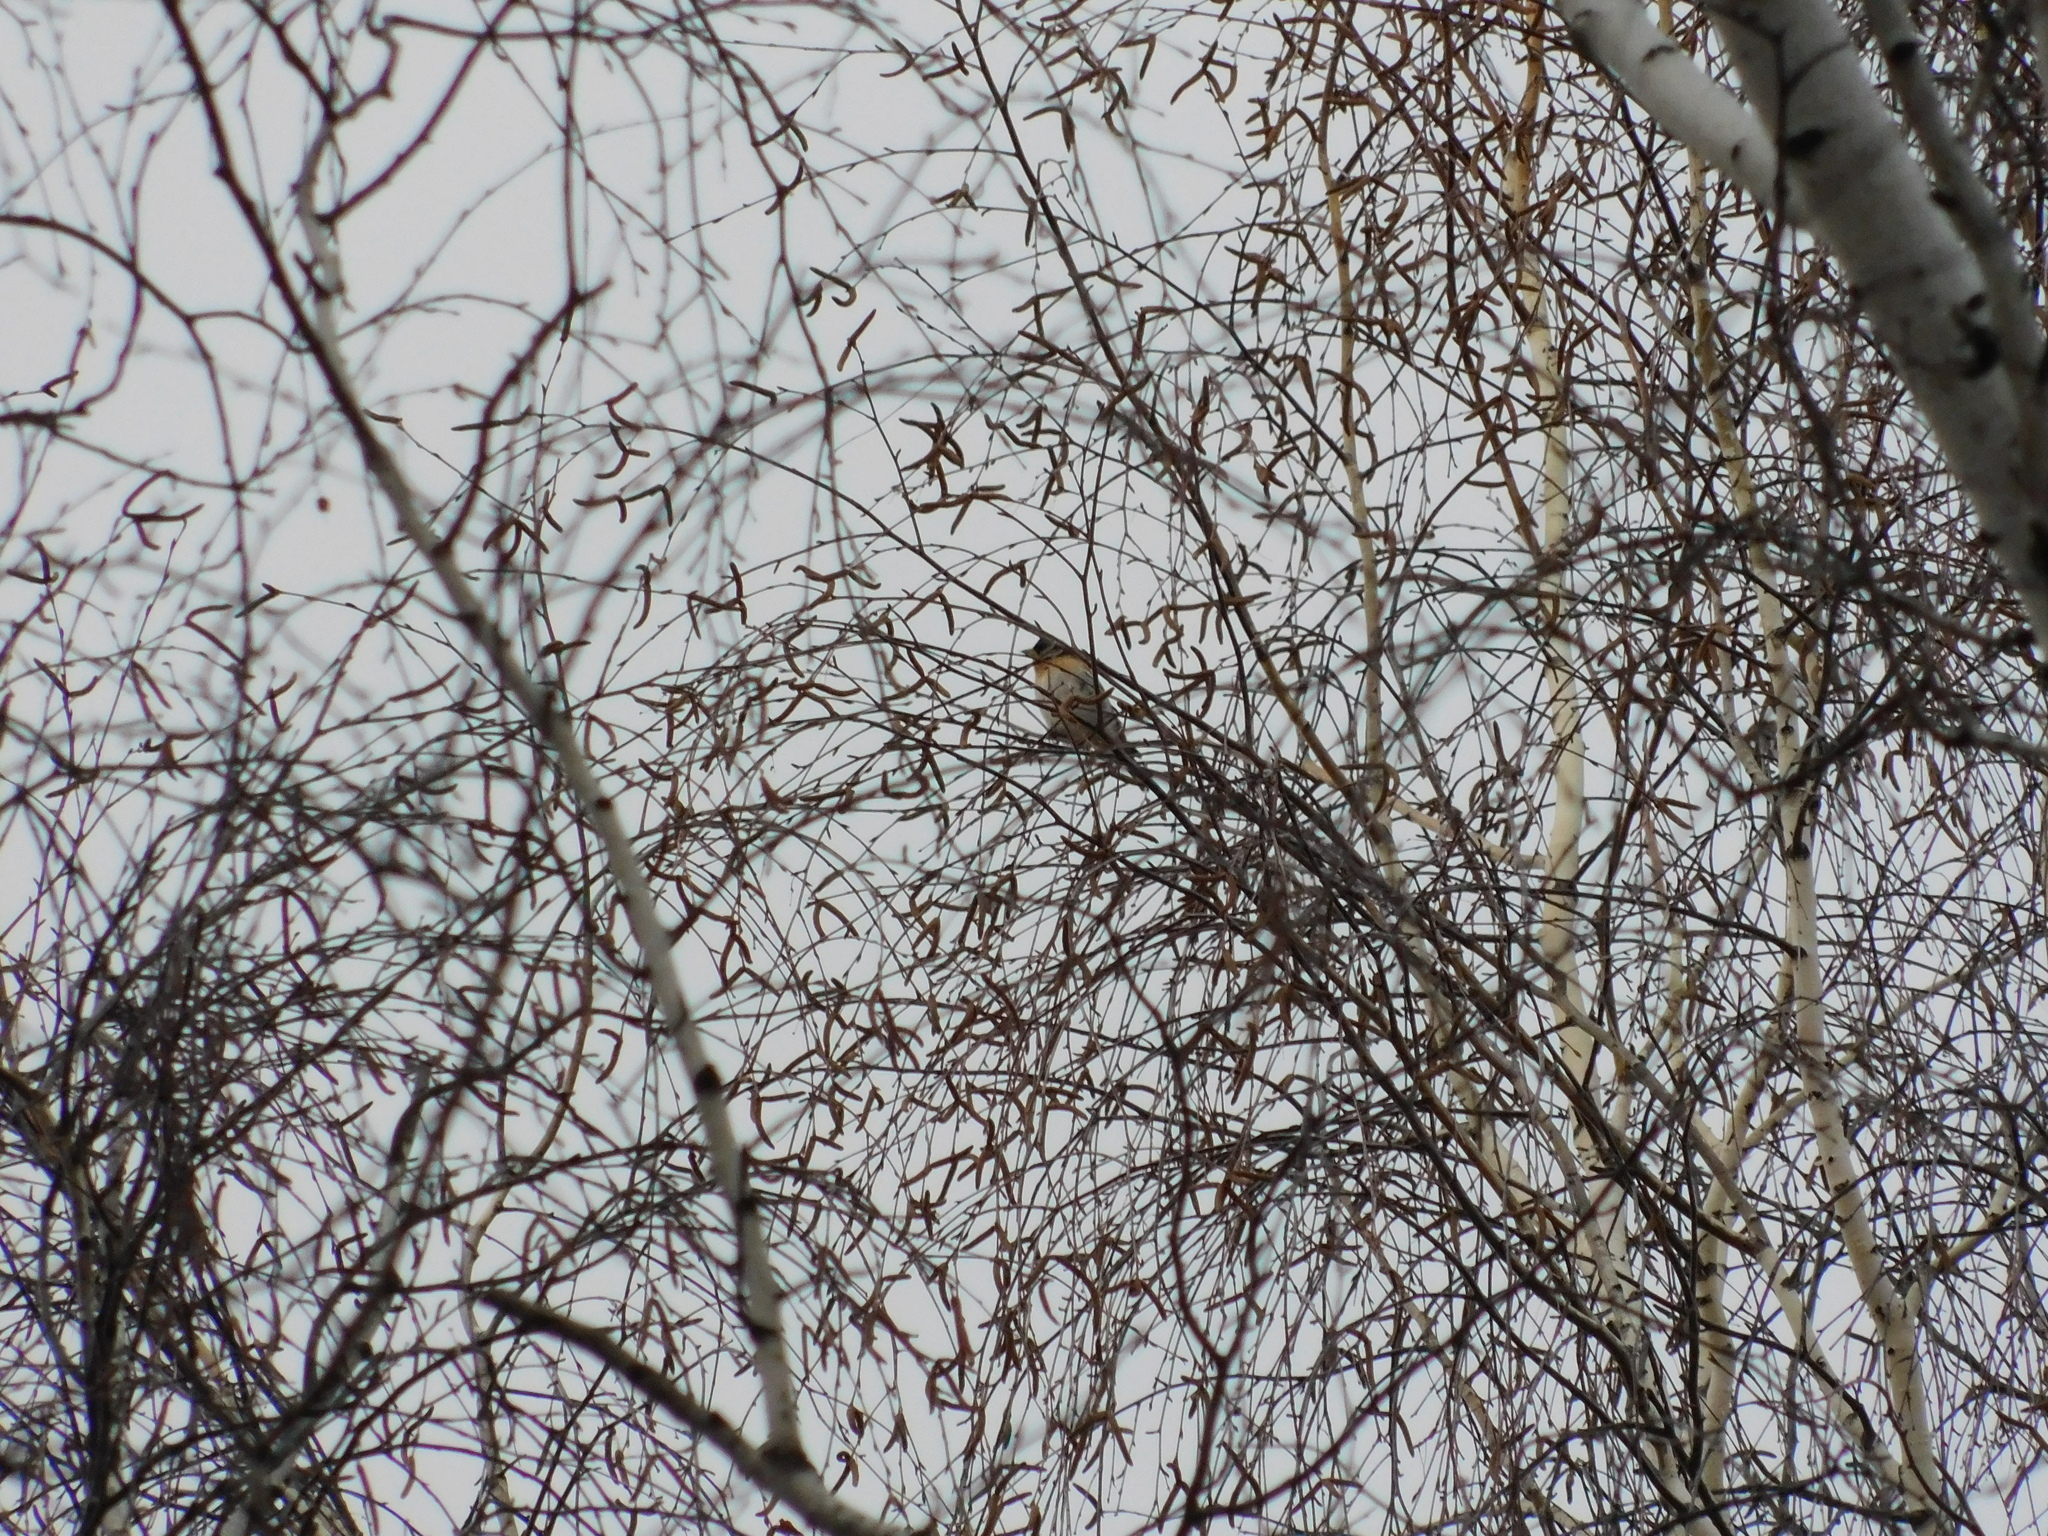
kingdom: Animalia
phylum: Chordata
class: Aves
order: Passeriformes
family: Fringillidae
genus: Fringilla
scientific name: Fringilla montifringilla
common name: Brambling
